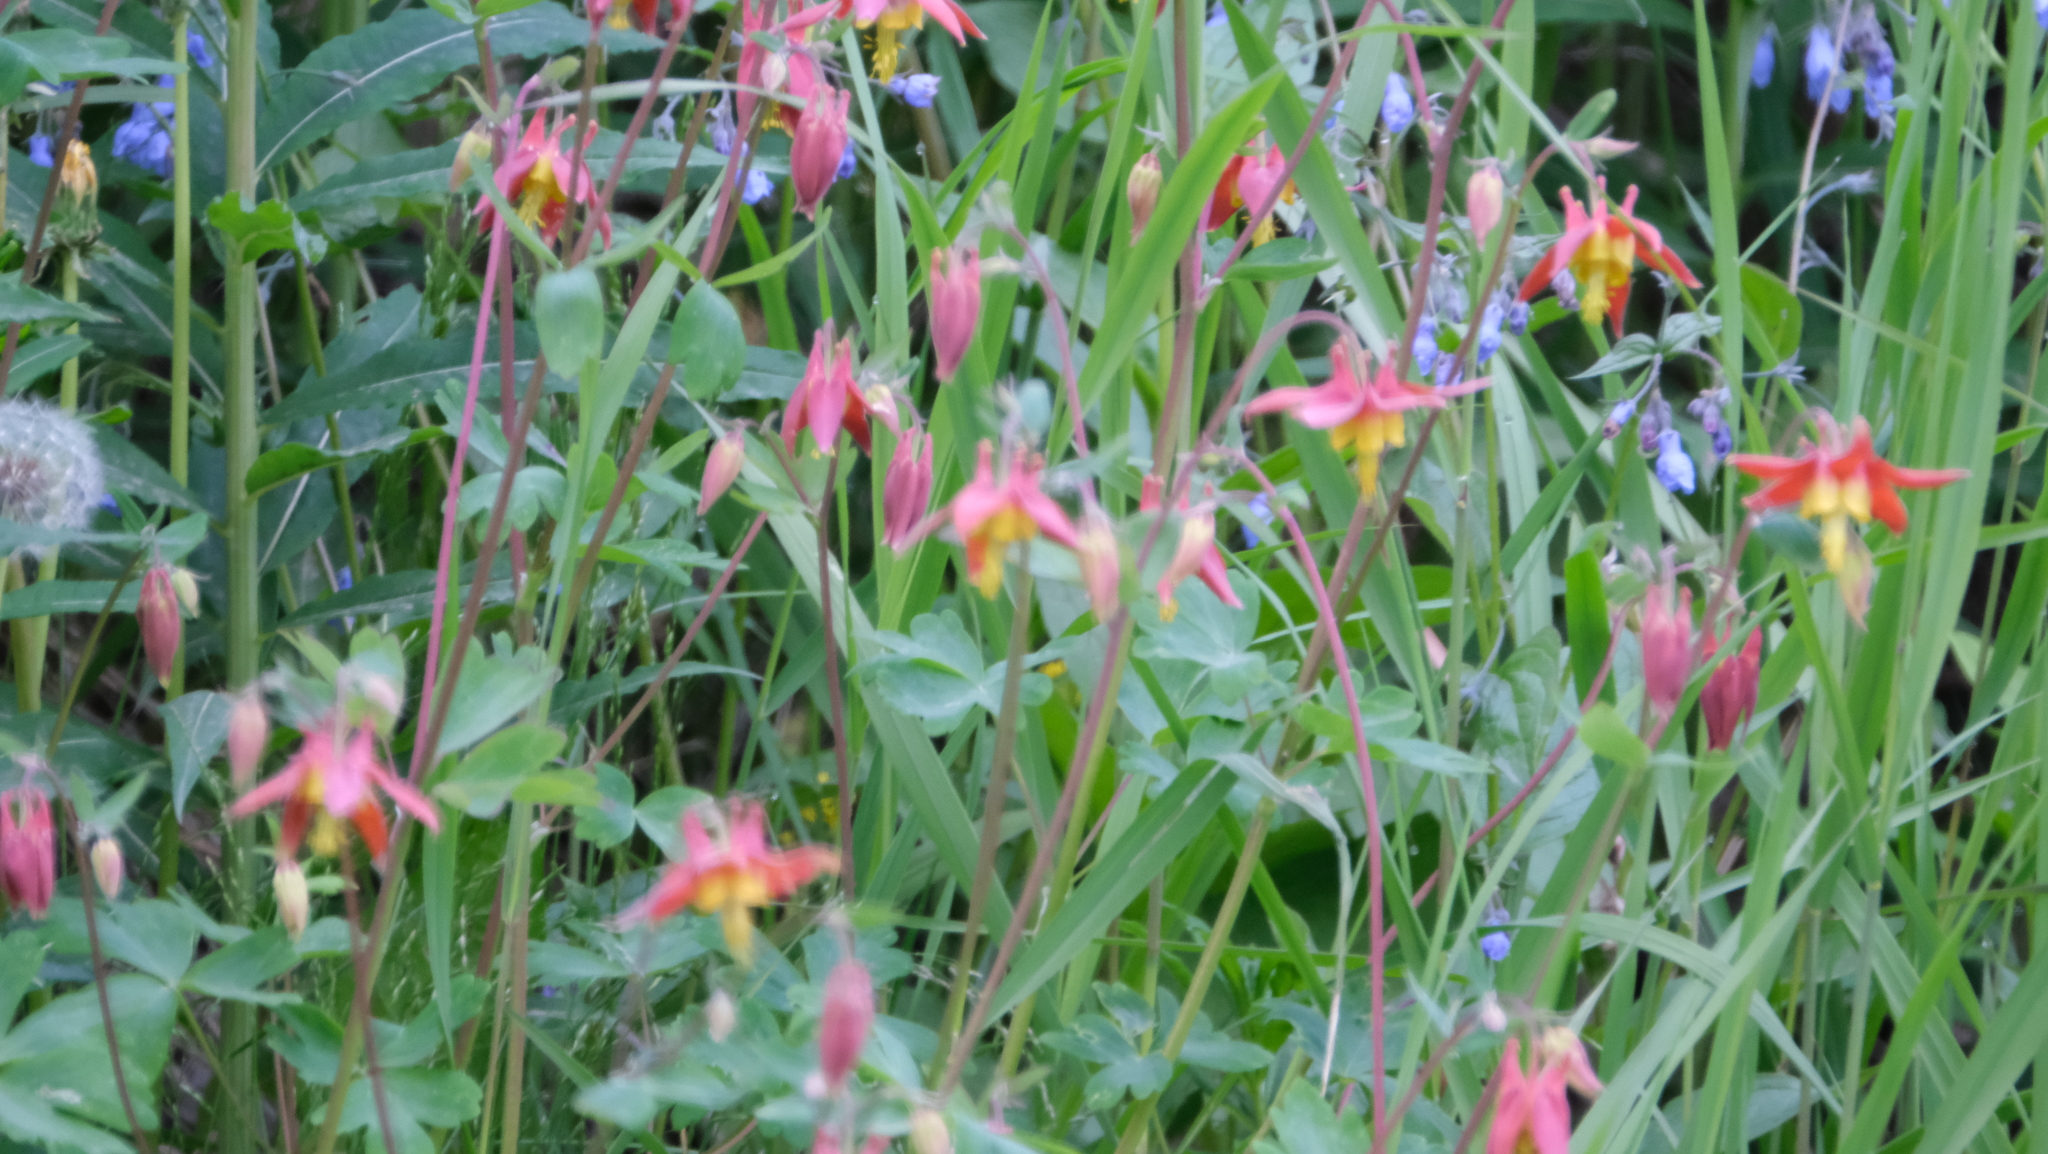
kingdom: Plantae
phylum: Tracheophyta
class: Magnoliopsida
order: Ranunculales
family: Ranunculaceae
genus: Aquilegia
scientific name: Aquilegia formosa
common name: Sitka columbine
